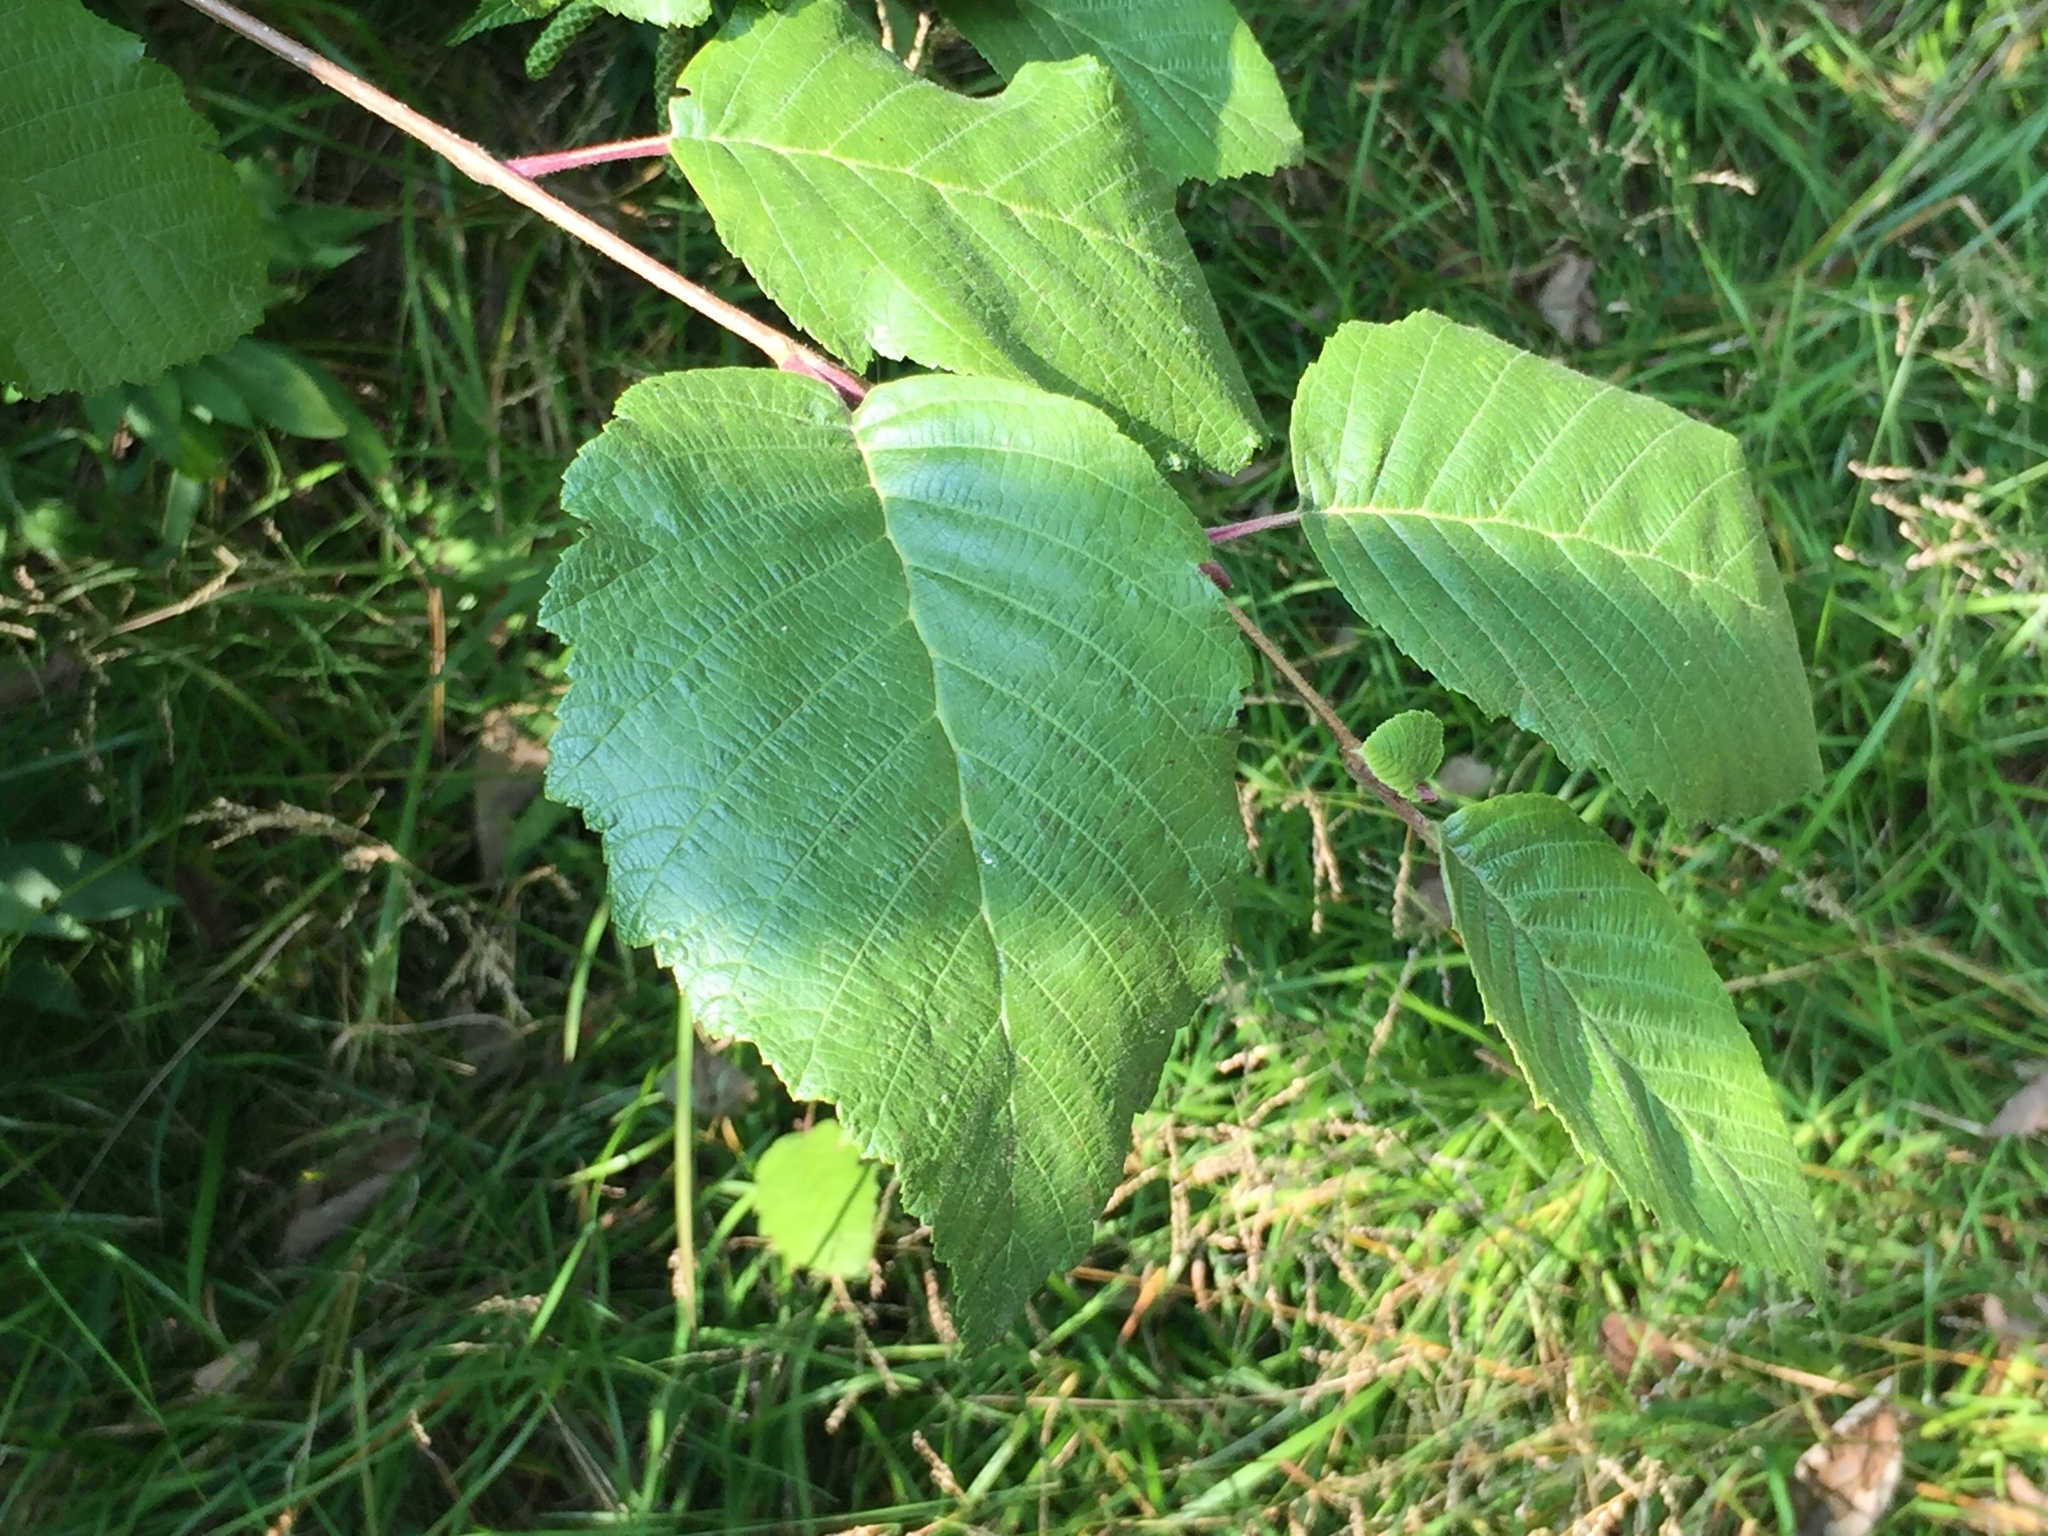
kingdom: Plantae
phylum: Tracheophyta
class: Magnoliopsida
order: Fagales
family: Betulaceae
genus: Corylus
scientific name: Corylus americana
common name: American hazel
